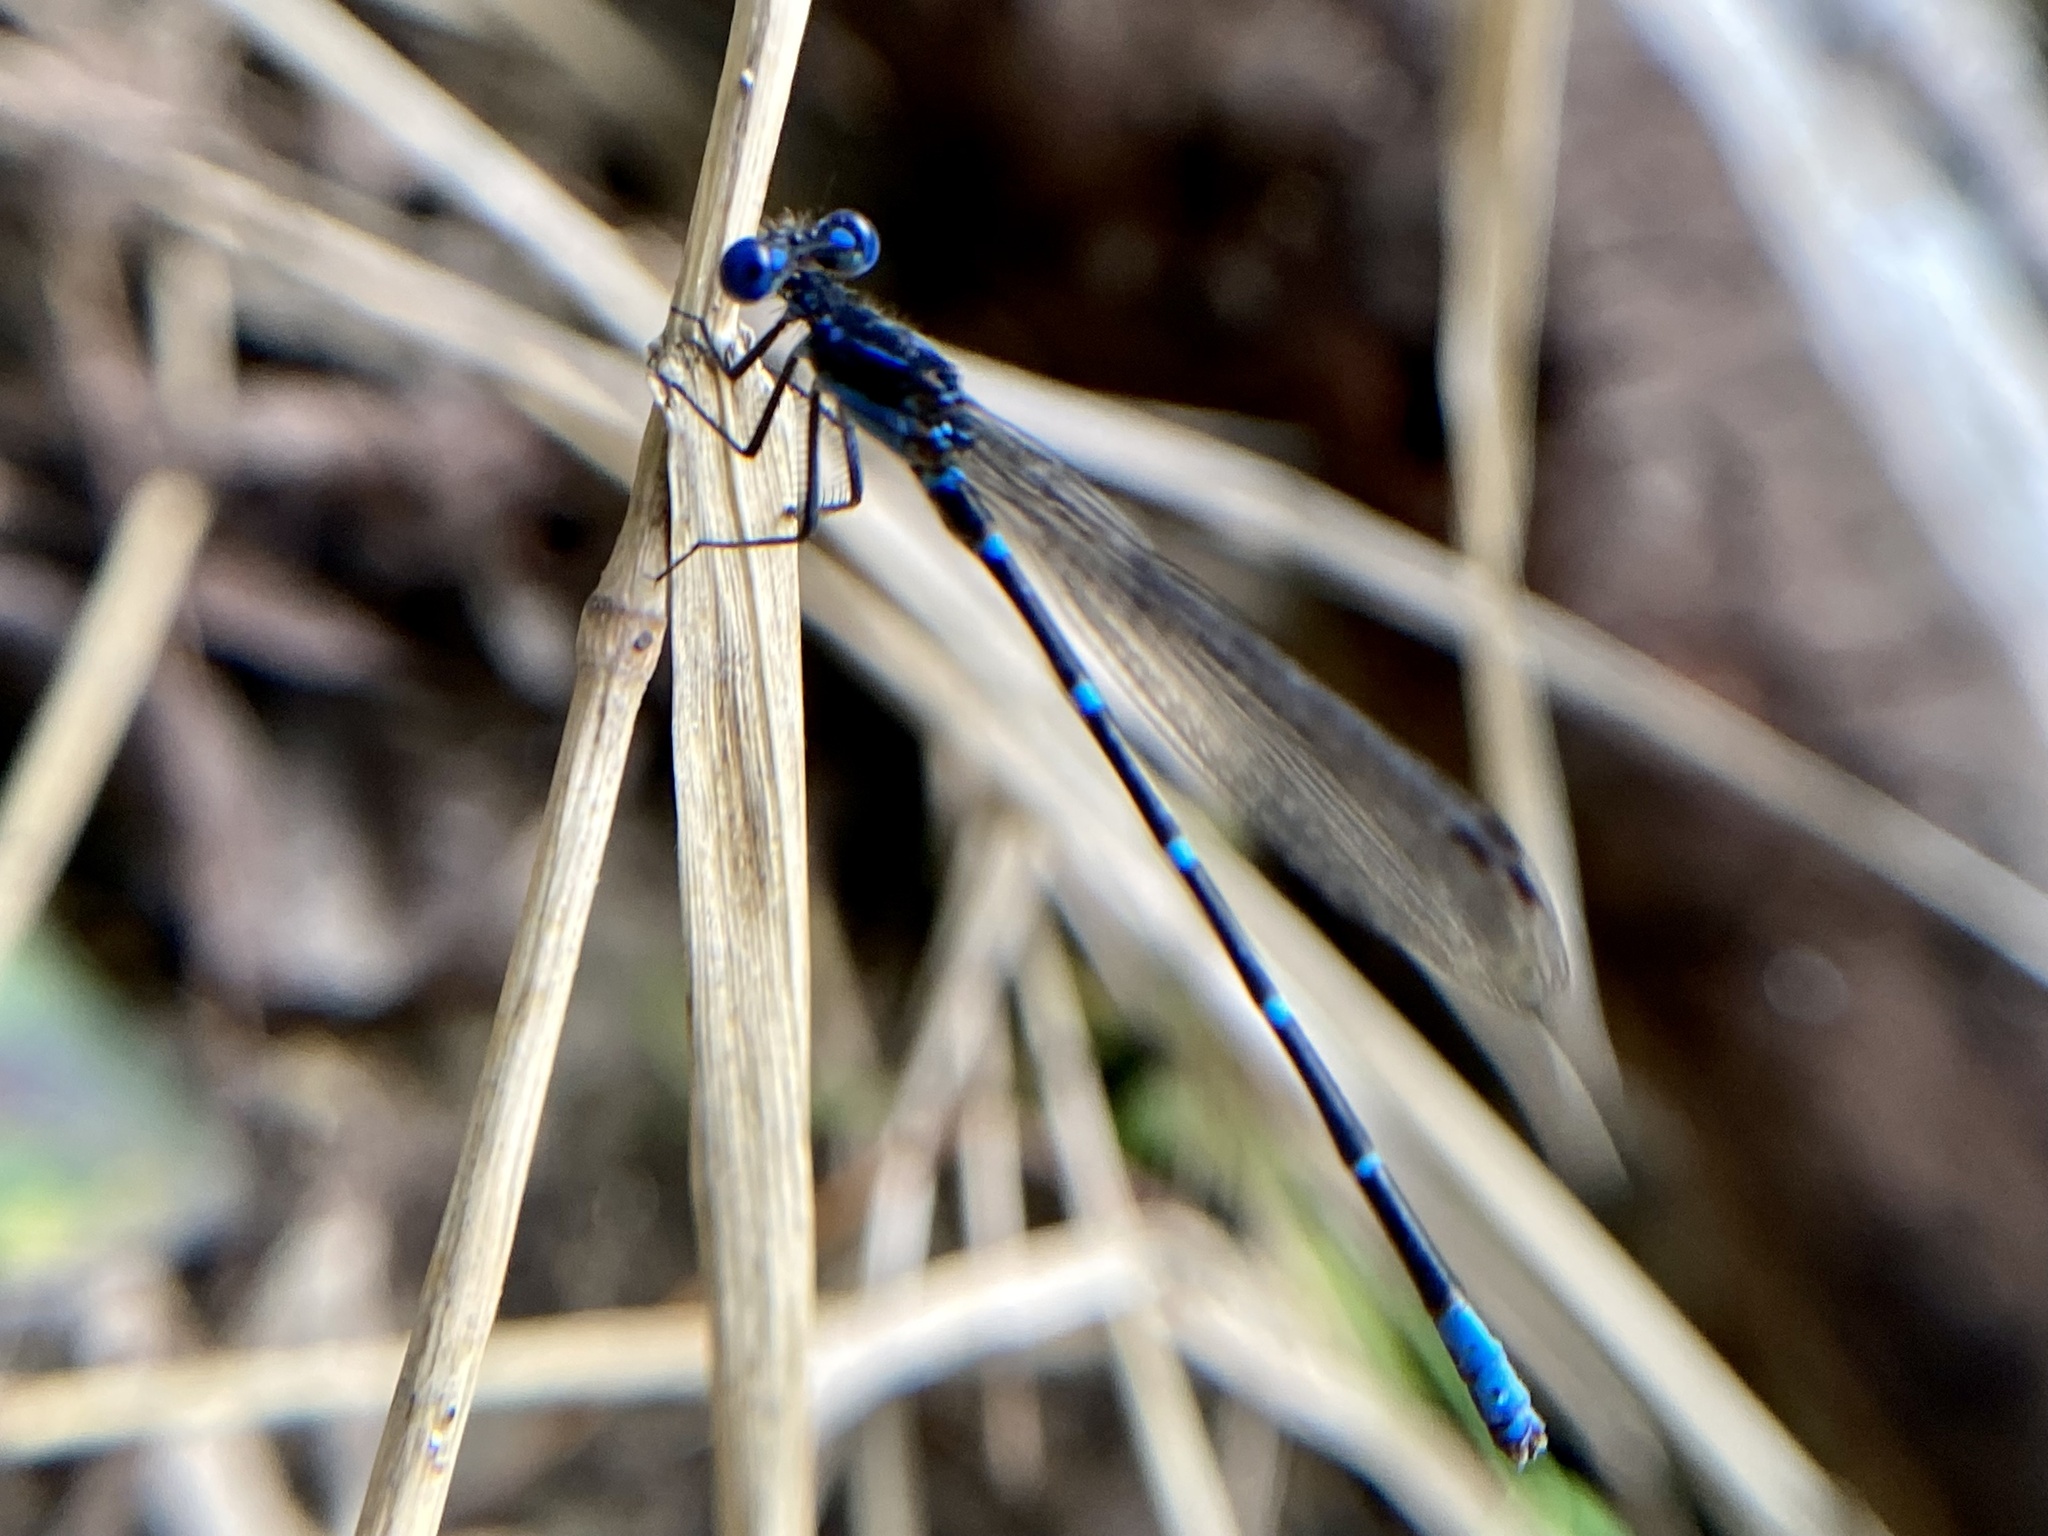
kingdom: Animalia
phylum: Arthropoda
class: Insecta
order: Odonata
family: Coenagrionidae
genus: Argia
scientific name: Argia sedula
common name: Blue-ringed dancer
